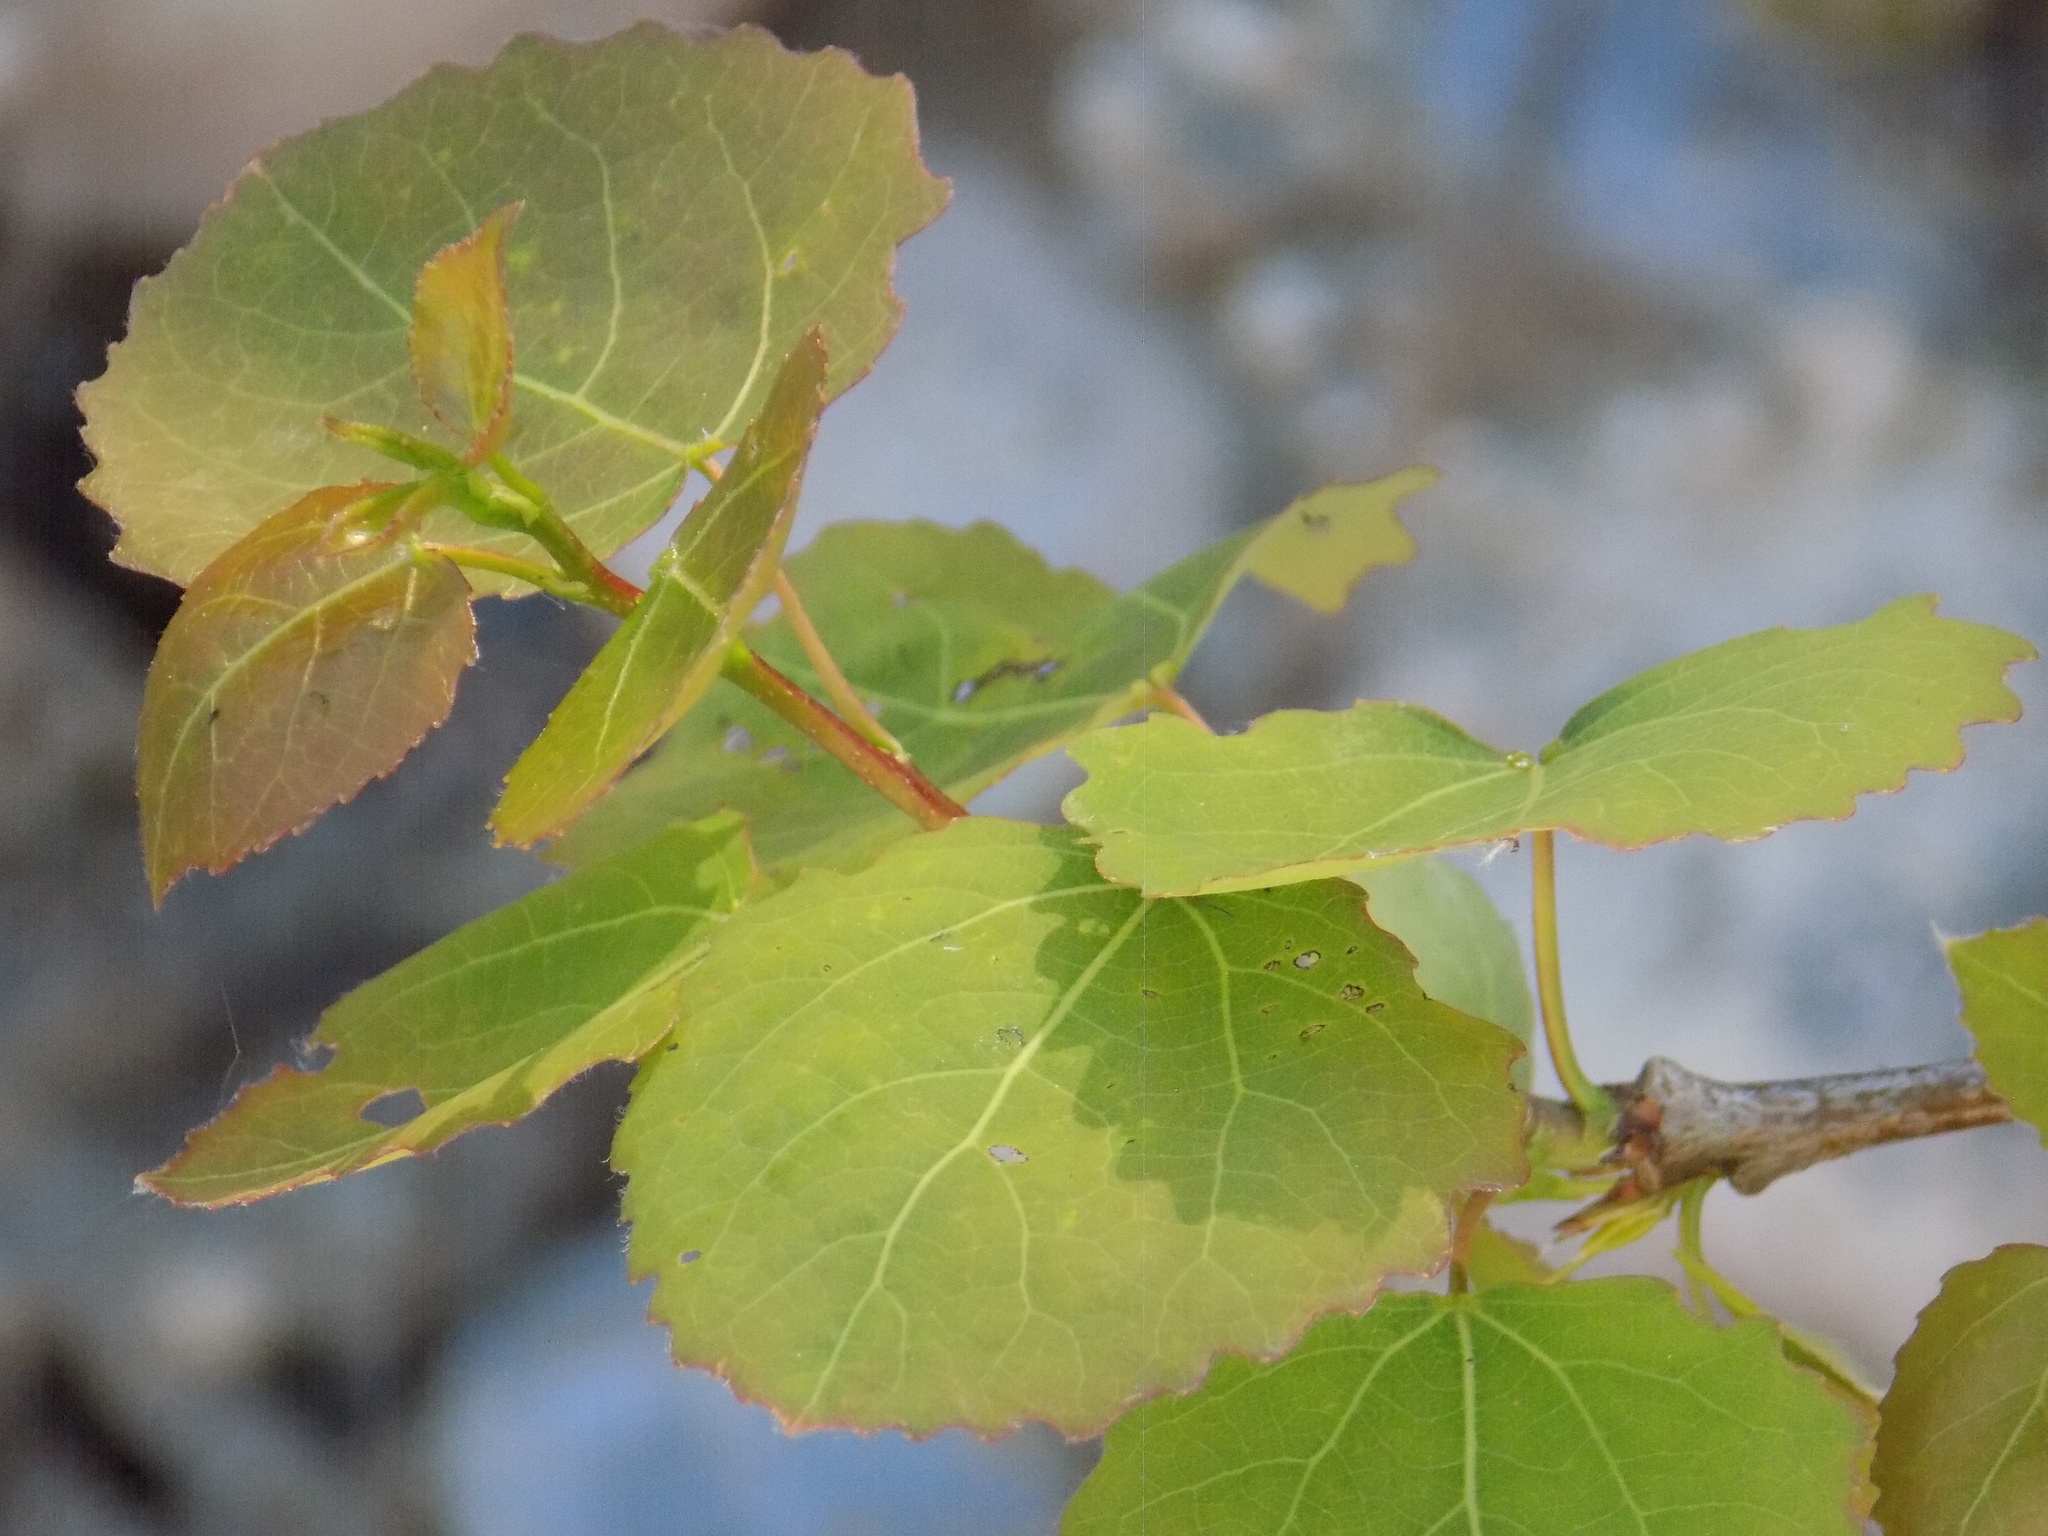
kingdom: Plantae
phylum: Tracheophyta
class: Magnoliopsida
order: Malpighiales
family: Salicaceae
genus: Populus
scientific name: Populus tremula
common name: European aspen
